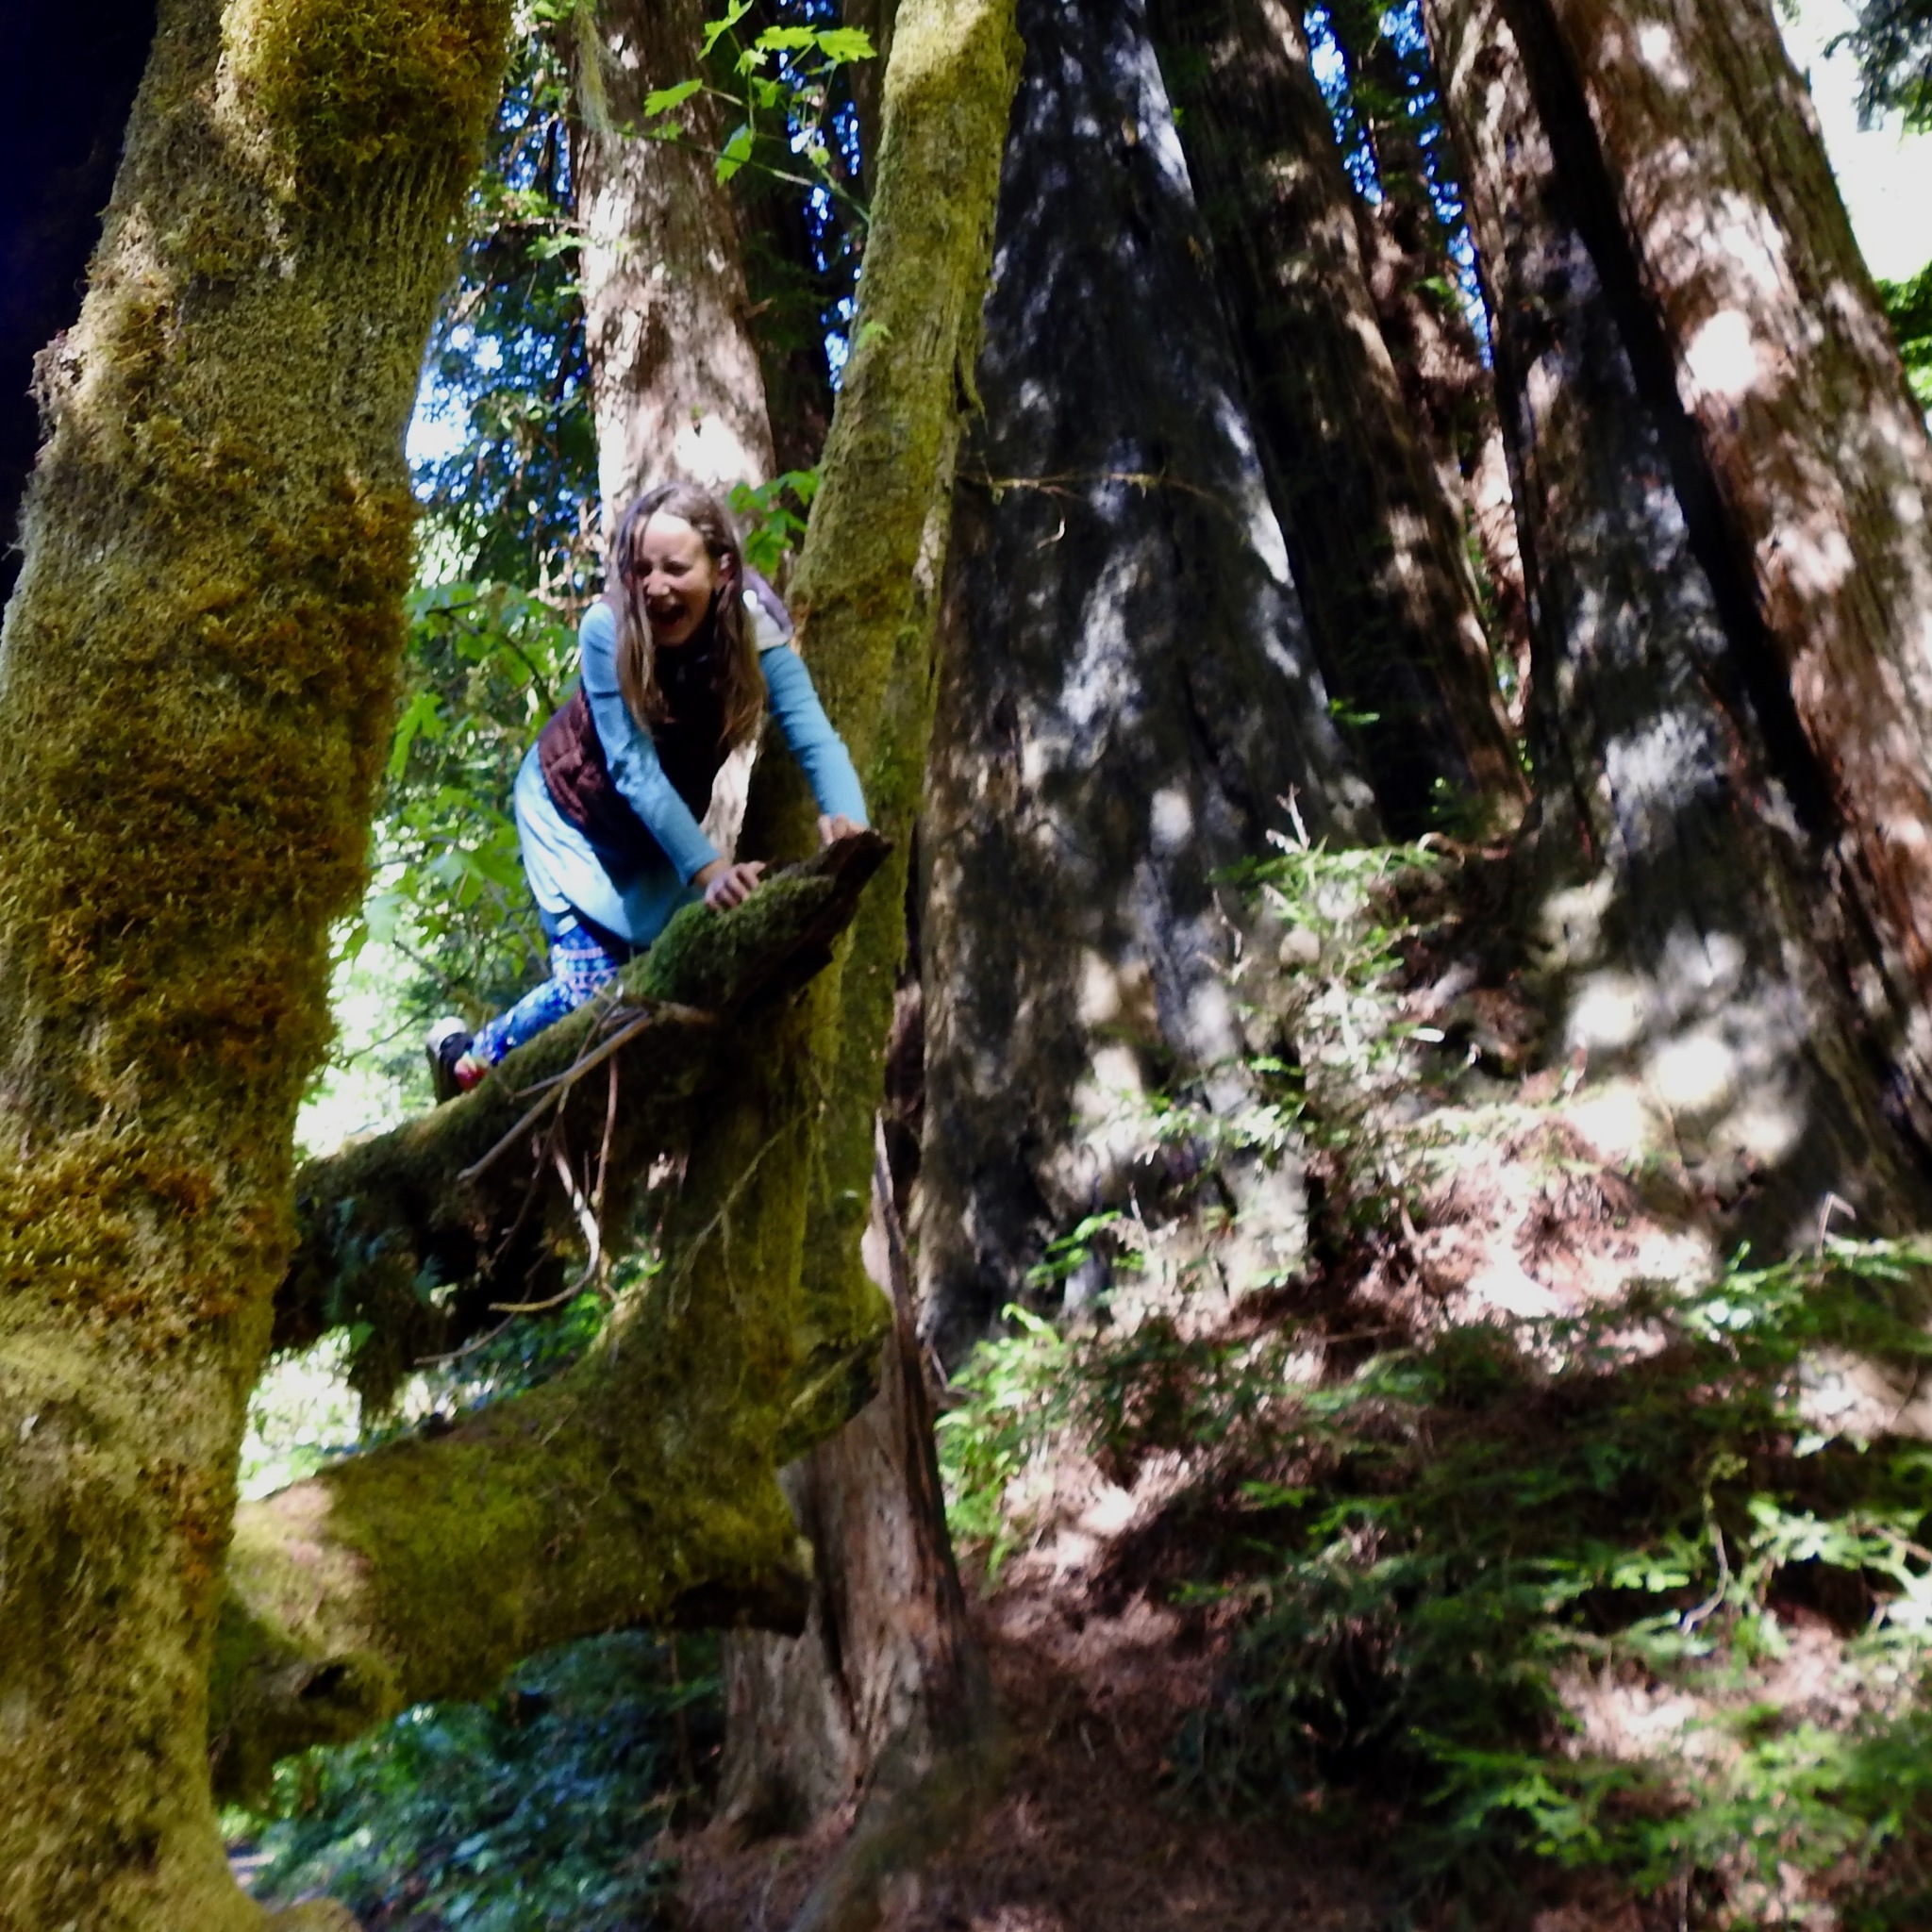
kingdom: Plantae
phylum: Tracheophyta
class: Pinopsida
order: Pinales
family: Cupressaceae
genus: Sequoia
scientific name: Sequoia sempervirens
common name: Coast redwood
